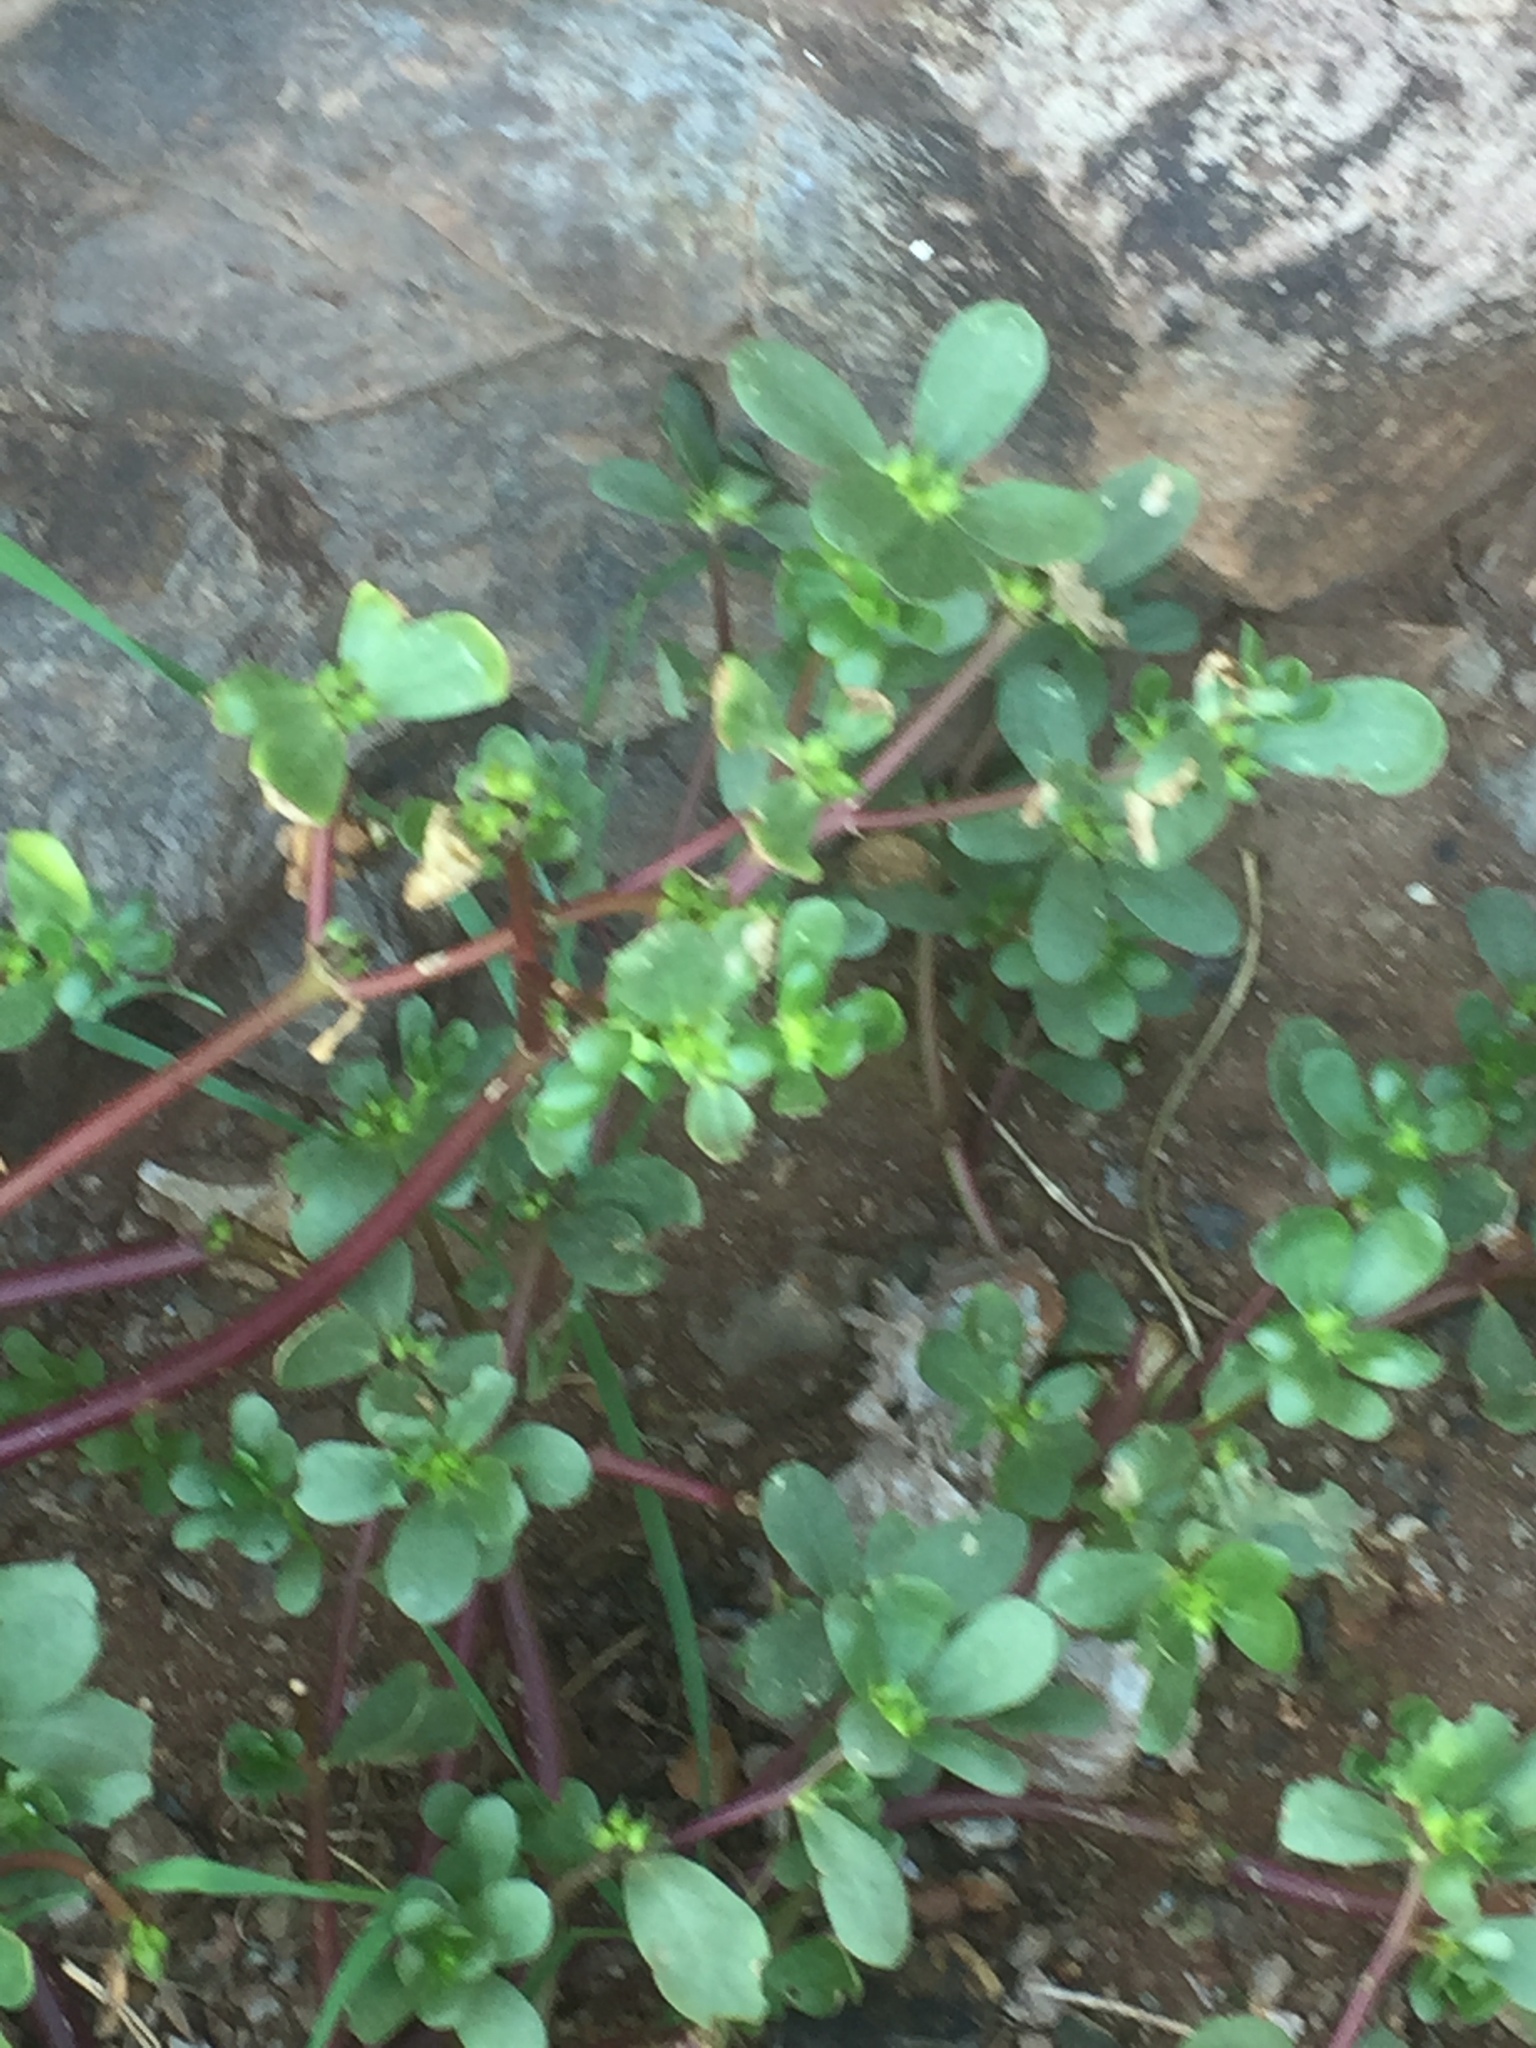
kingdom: Plantae
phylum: Tracheophyta
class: Magnoliopsida
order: Caryophyllales
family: Portulacaceae
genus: Portulaca
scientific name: Portulaca oleracea
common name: Common purslane
